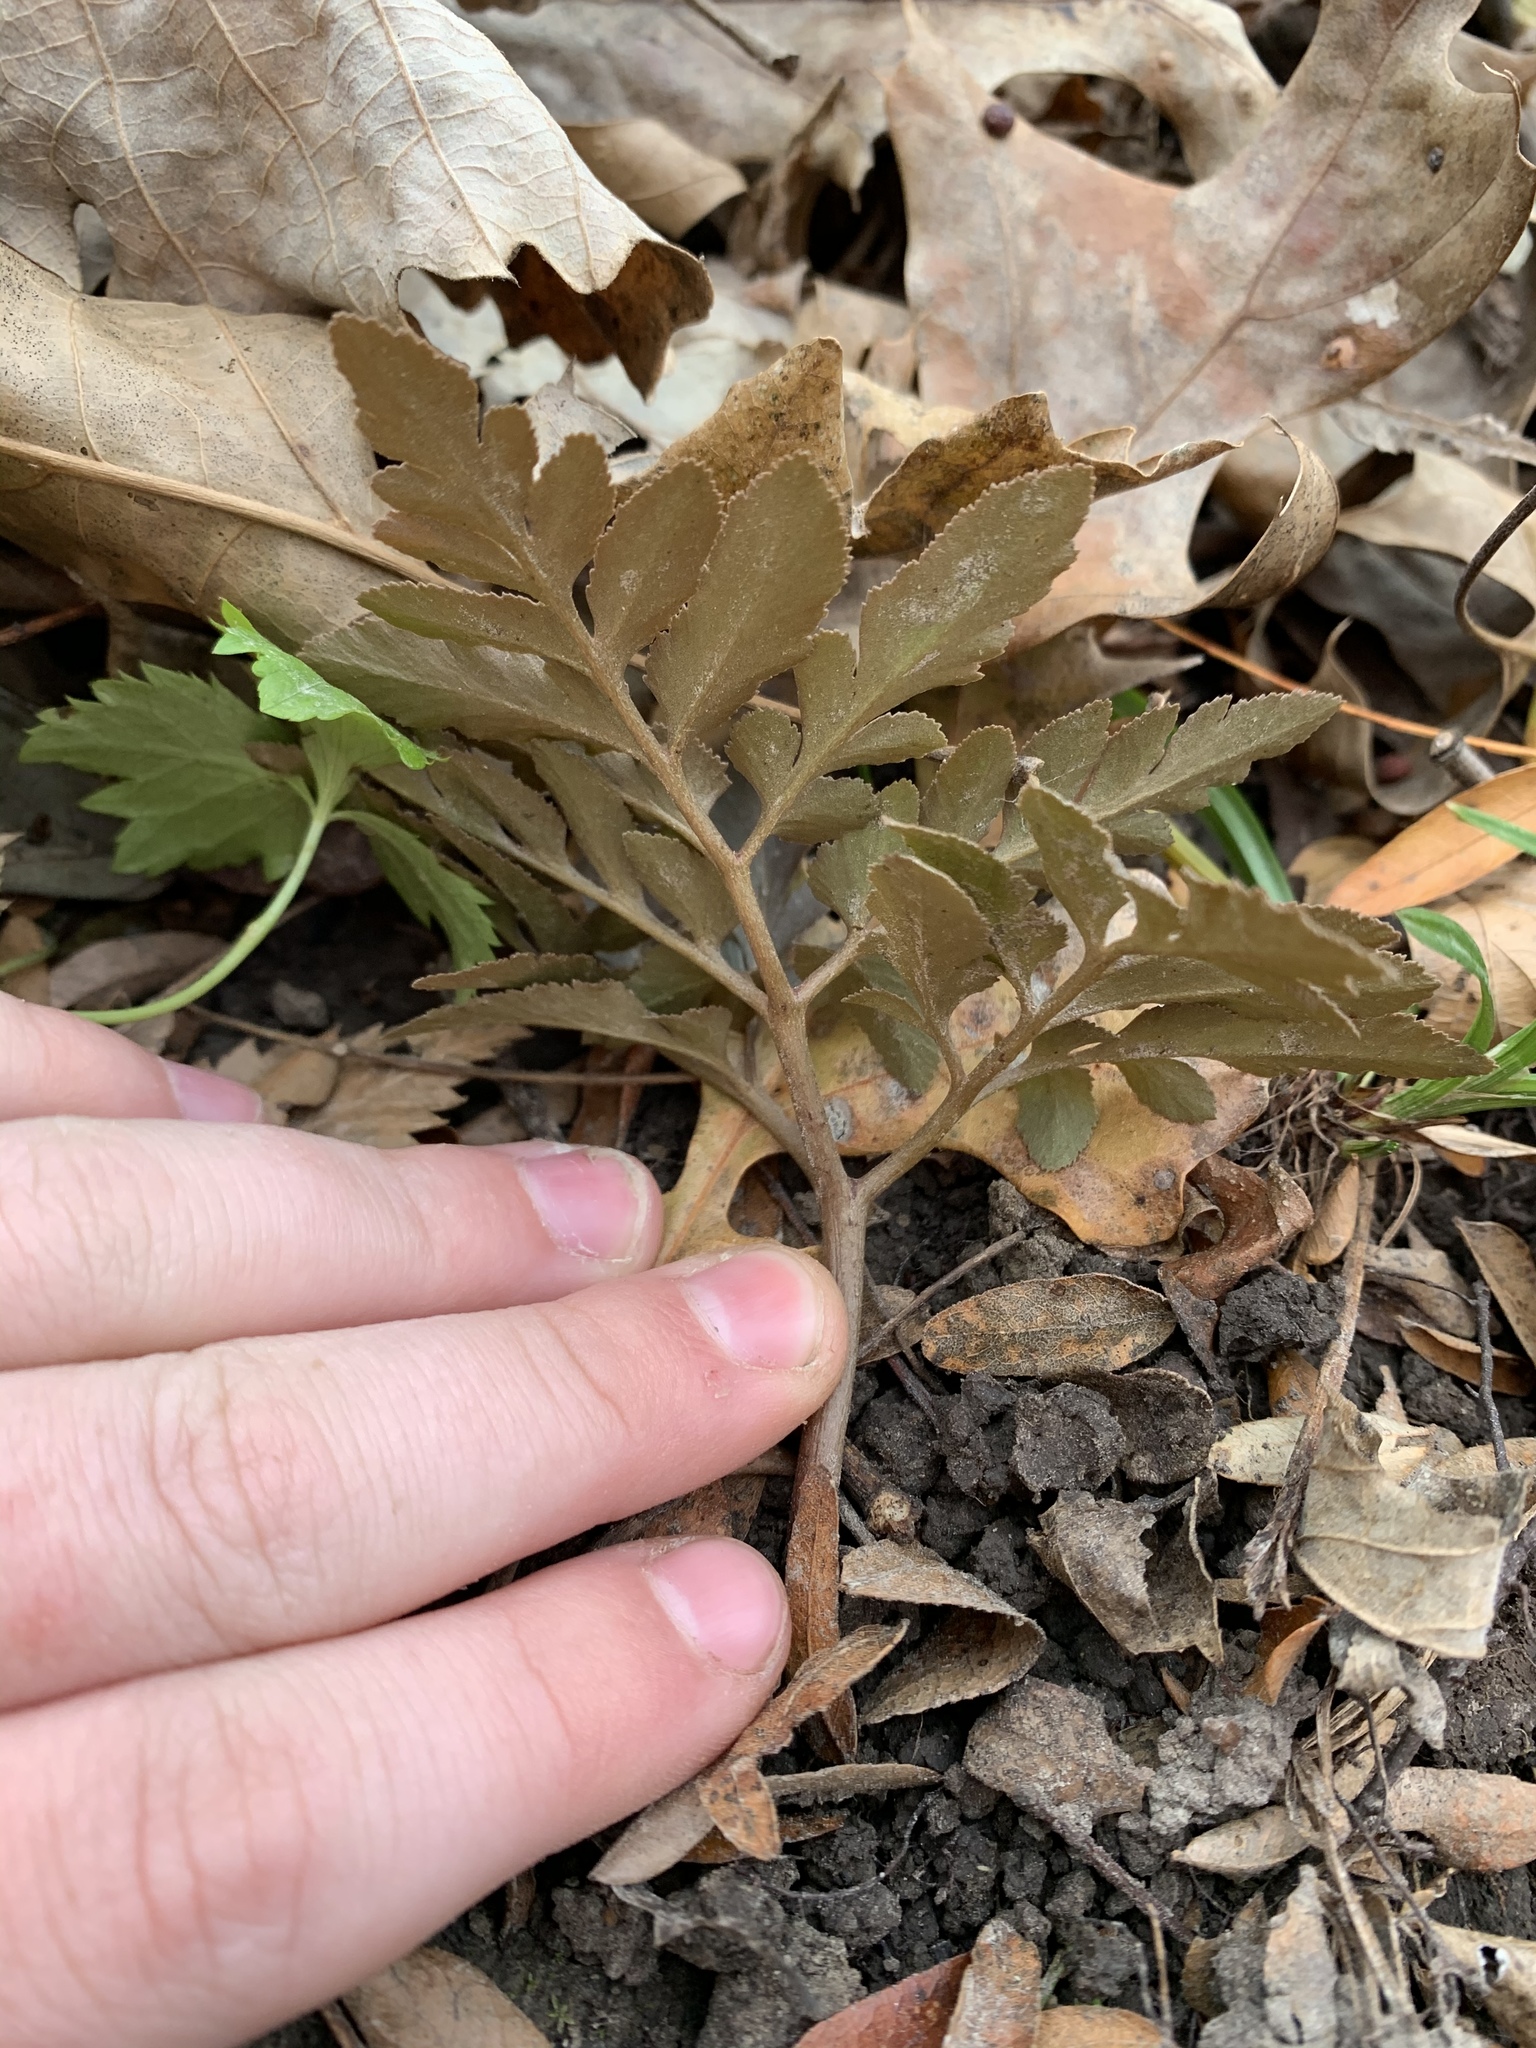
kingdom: Plantae
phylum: Tracheophyta
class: Polypodiopsida
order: Ophioglossales
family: Ophioglossaceae
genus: Sceptridium
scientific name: Sceptridium dissectum
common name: Cut-leaved grapefern
